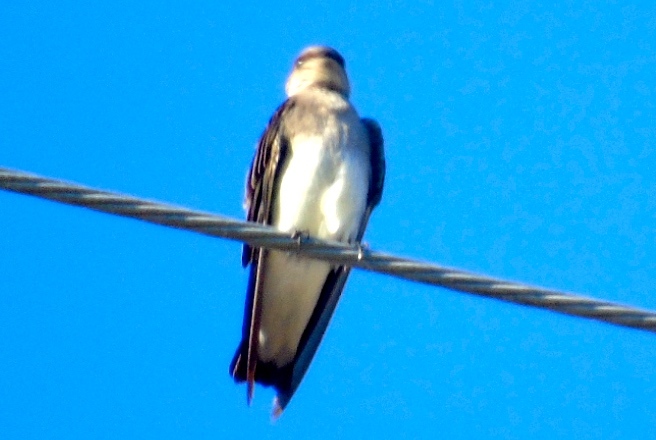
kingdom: Animalia
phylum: Chordata
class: Aves
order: Passeriformes
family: Hirundinidae
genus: Stelgidopteryx
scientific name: Stelgidopteryx serripennis
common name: Northern rough-winged swallow
